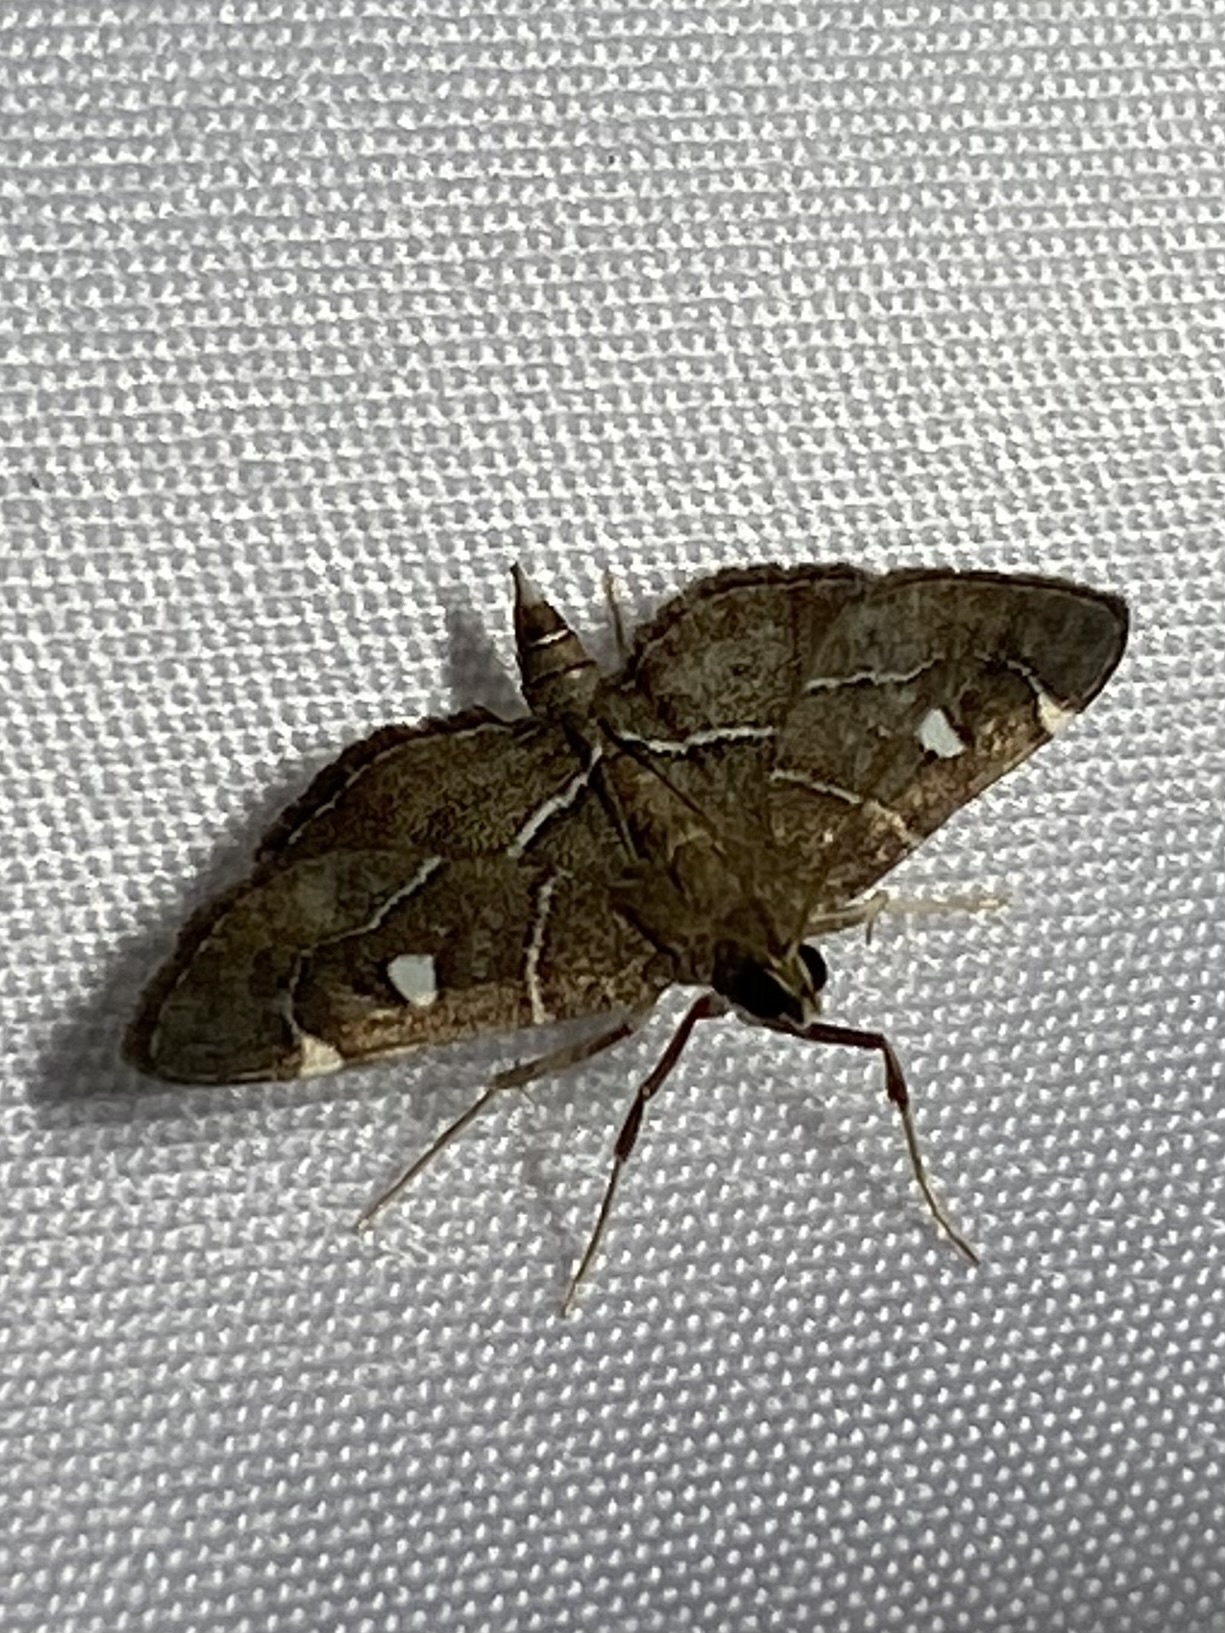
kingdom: Animalia
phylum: Arthropoda
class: Insecta
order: Lepidoptera
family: Crambidae
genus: Lamprosema
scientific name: Lamprosema victoriae
